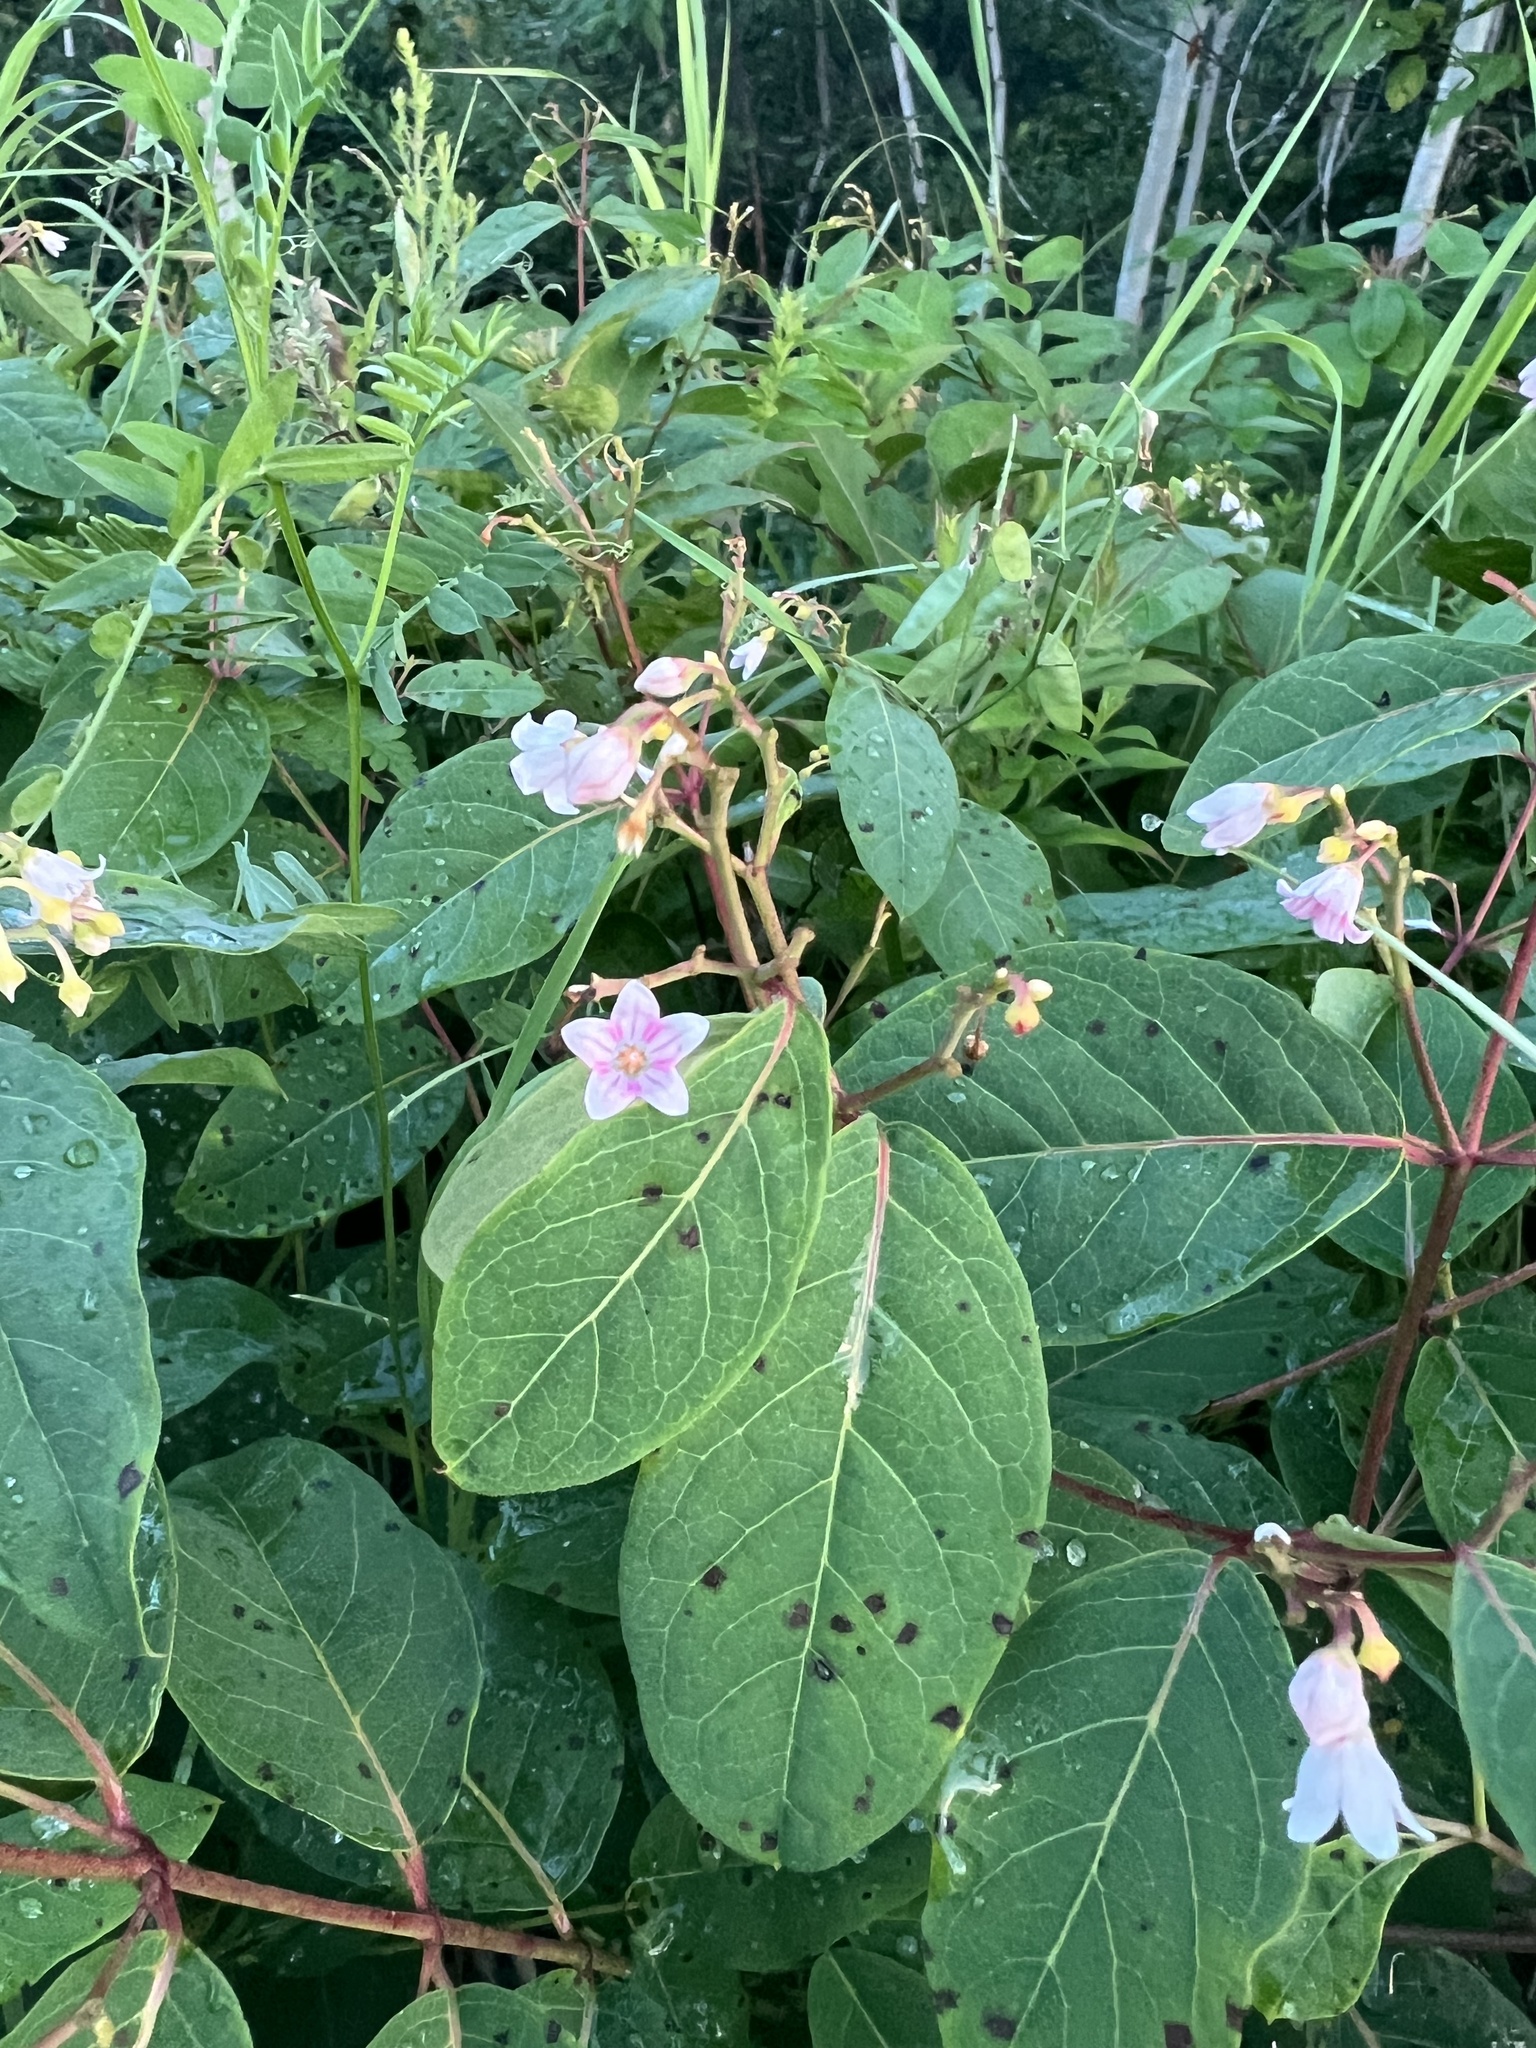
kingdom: Plantae
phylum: Tracheophyta
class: Magnoliopsida
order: Gentianales
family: Apocynaceae
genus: Apocynum
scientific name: Apocynum androsaemifolium
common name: Spreading dogbane
